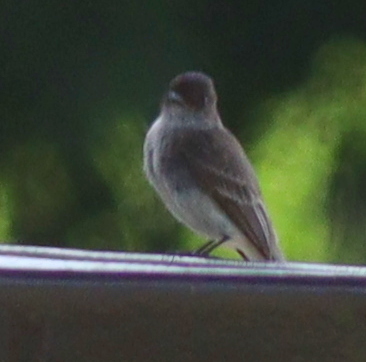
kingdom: Animalia
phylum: Chordata
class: Aves
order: Passeriformes
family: Tyrannidae
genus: Sayornis
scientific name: Sayornis phoebe
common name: Eastern phoebe
